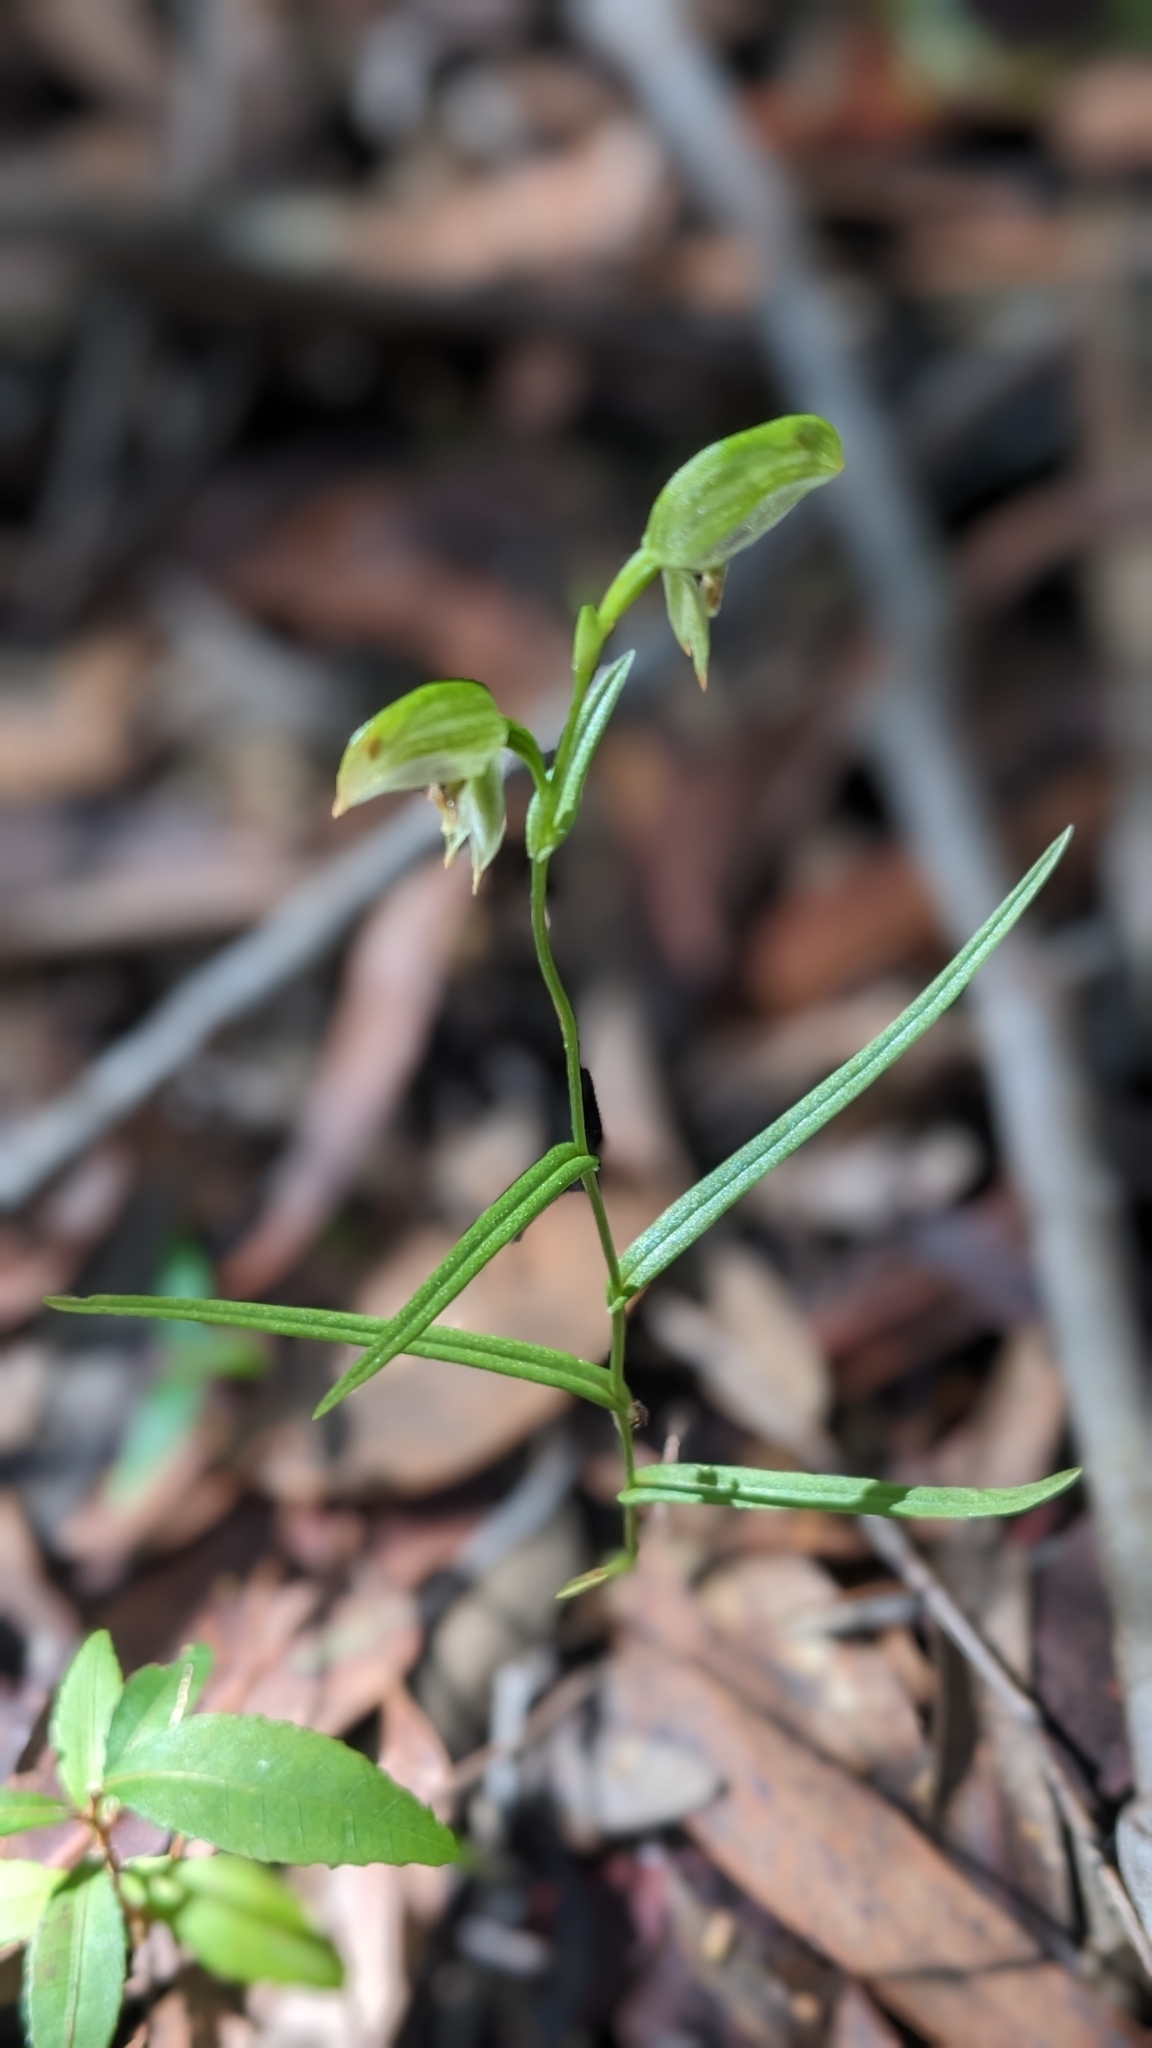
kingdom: Plantae
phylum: Tracheophyta
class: Liliopsida
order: Asparagales
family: Orchidaceae
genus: Pterostylis
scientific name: Pterostylis longifolia
